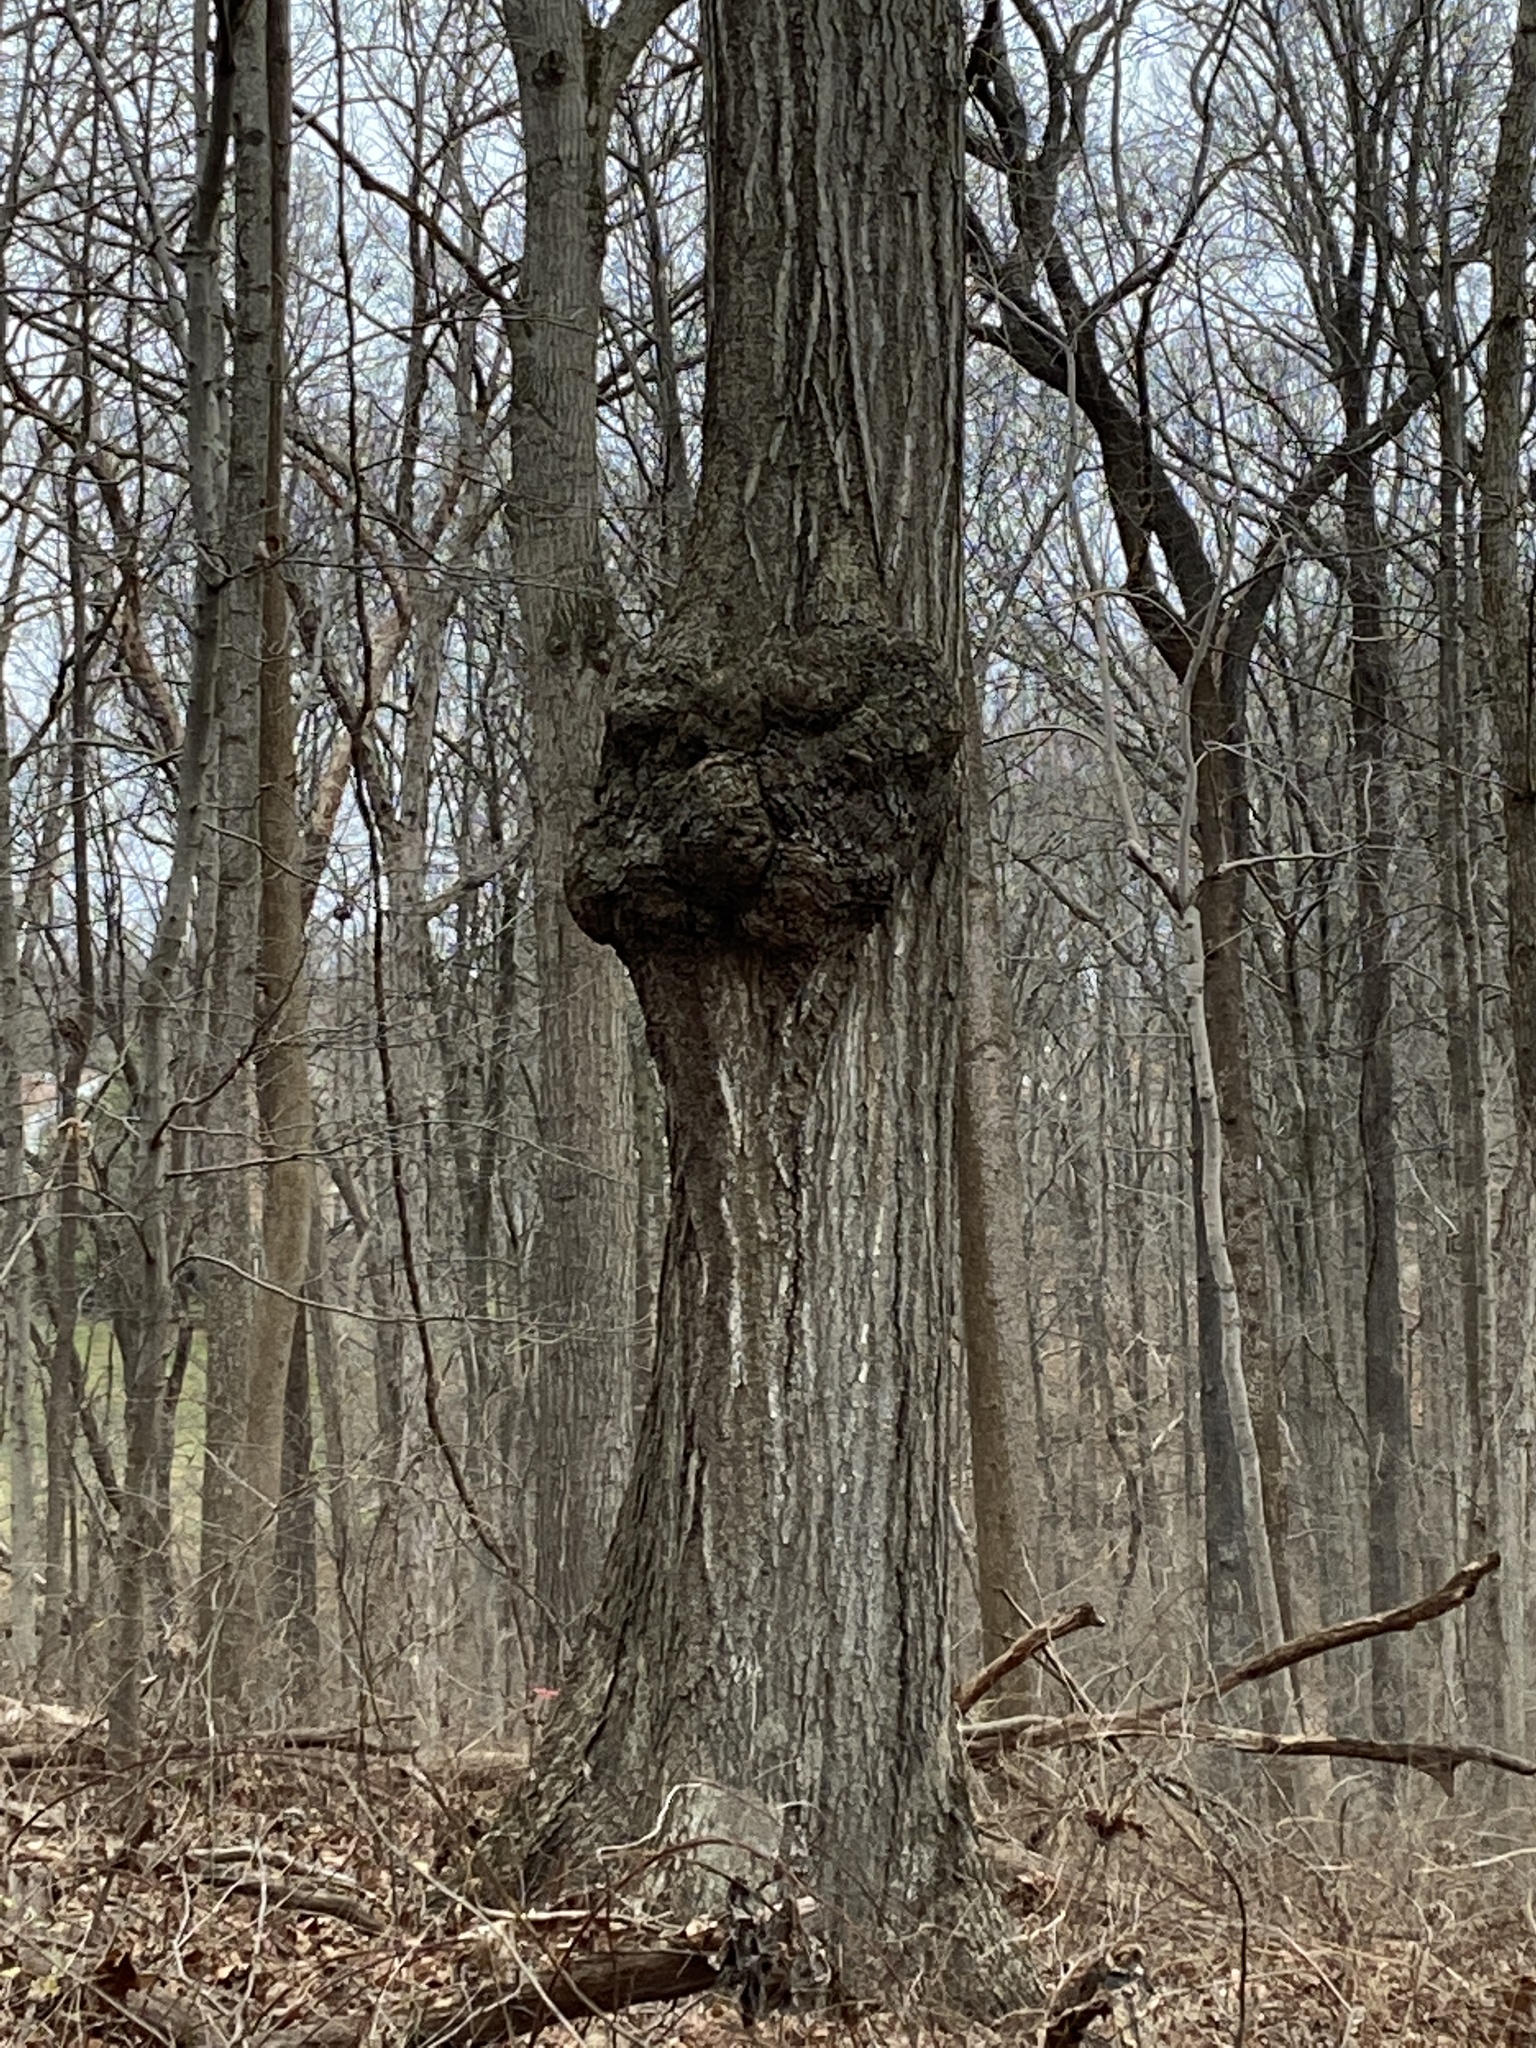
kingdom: Bacteria
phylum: Proteobacteria
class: Alphaproteobacteria
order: Rhizobiales
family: Rhizobiaceae
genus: Rhizobium
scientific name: Rhizobium Agrobacterium radiobacter
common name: Bacterial crown gall
